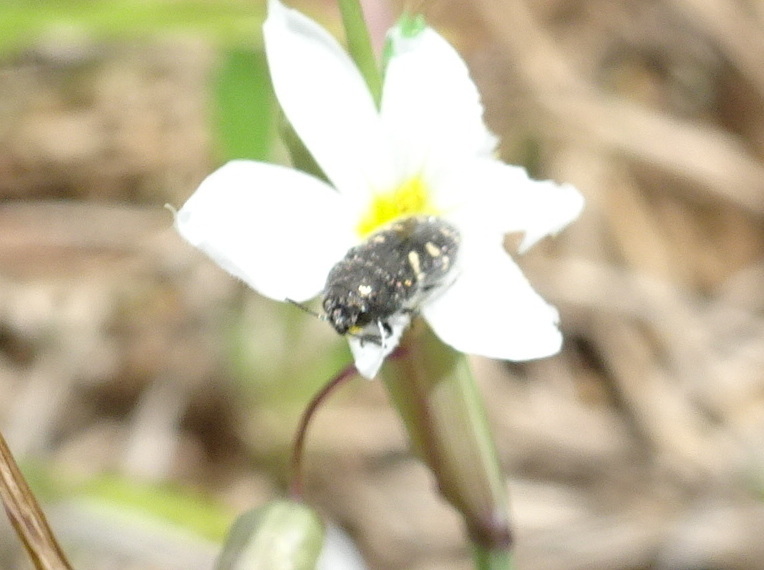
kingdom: Animalia
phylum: Arthropoda
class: Insecta
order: Coleoptera
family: Buprestidae
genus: Acmaeodera
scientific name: Acmaeodera tubulus
